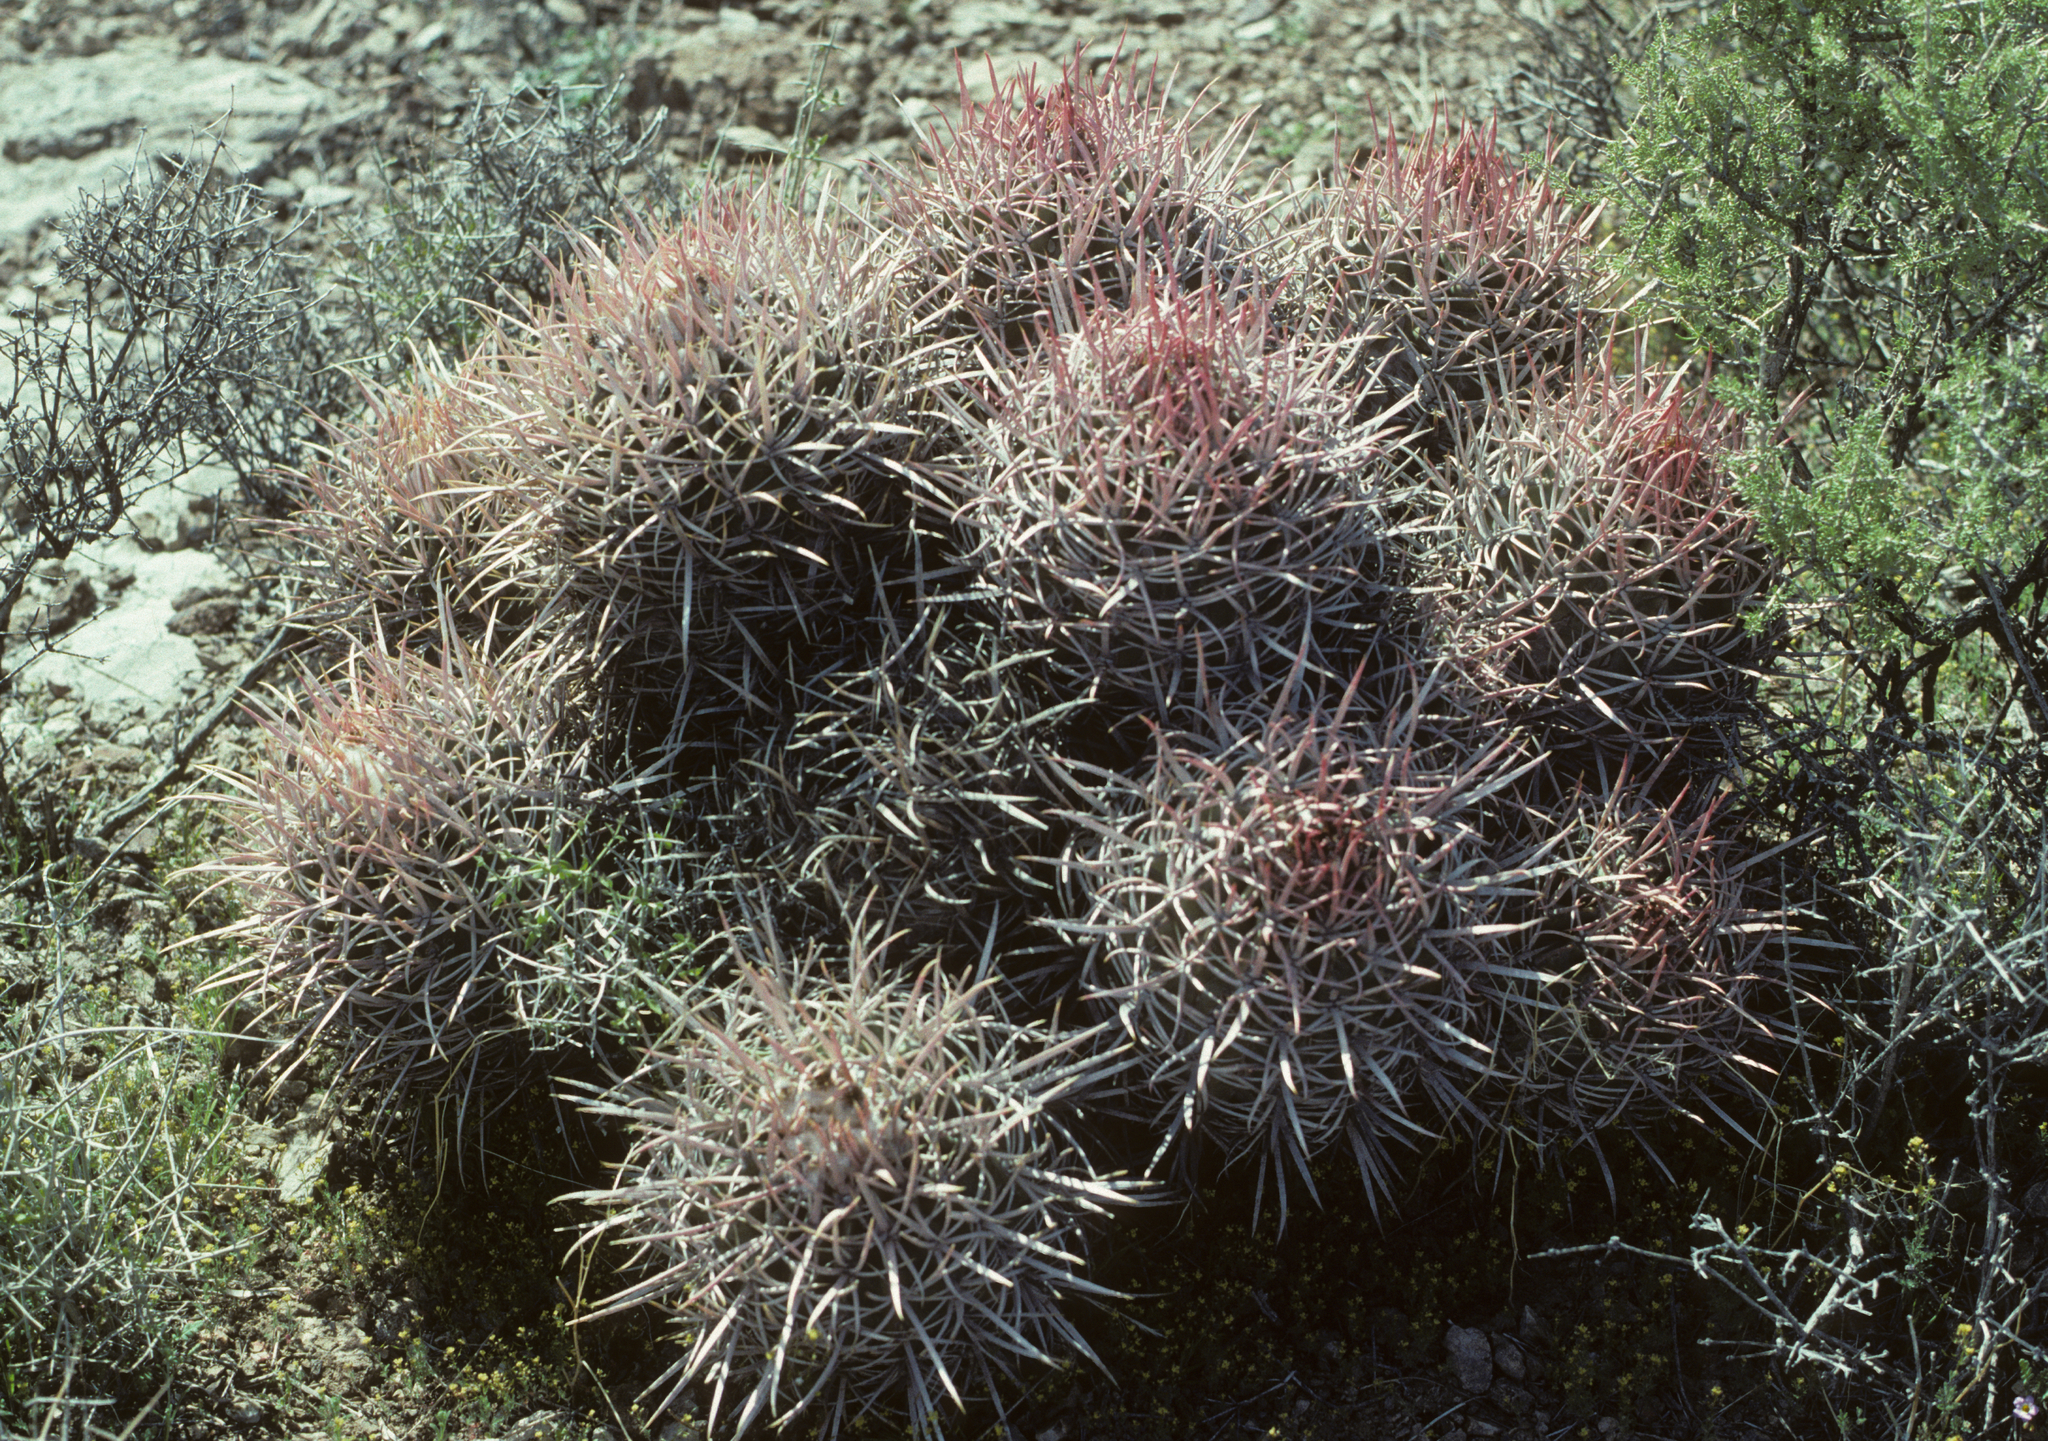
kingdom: Plantae
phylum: Tracheophyta
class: Magnoliopsida
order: Caryophyllales
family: Cactaceae
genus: Echinocactus
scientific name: Echinocactus polycephalus
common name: Cottontop cactus
